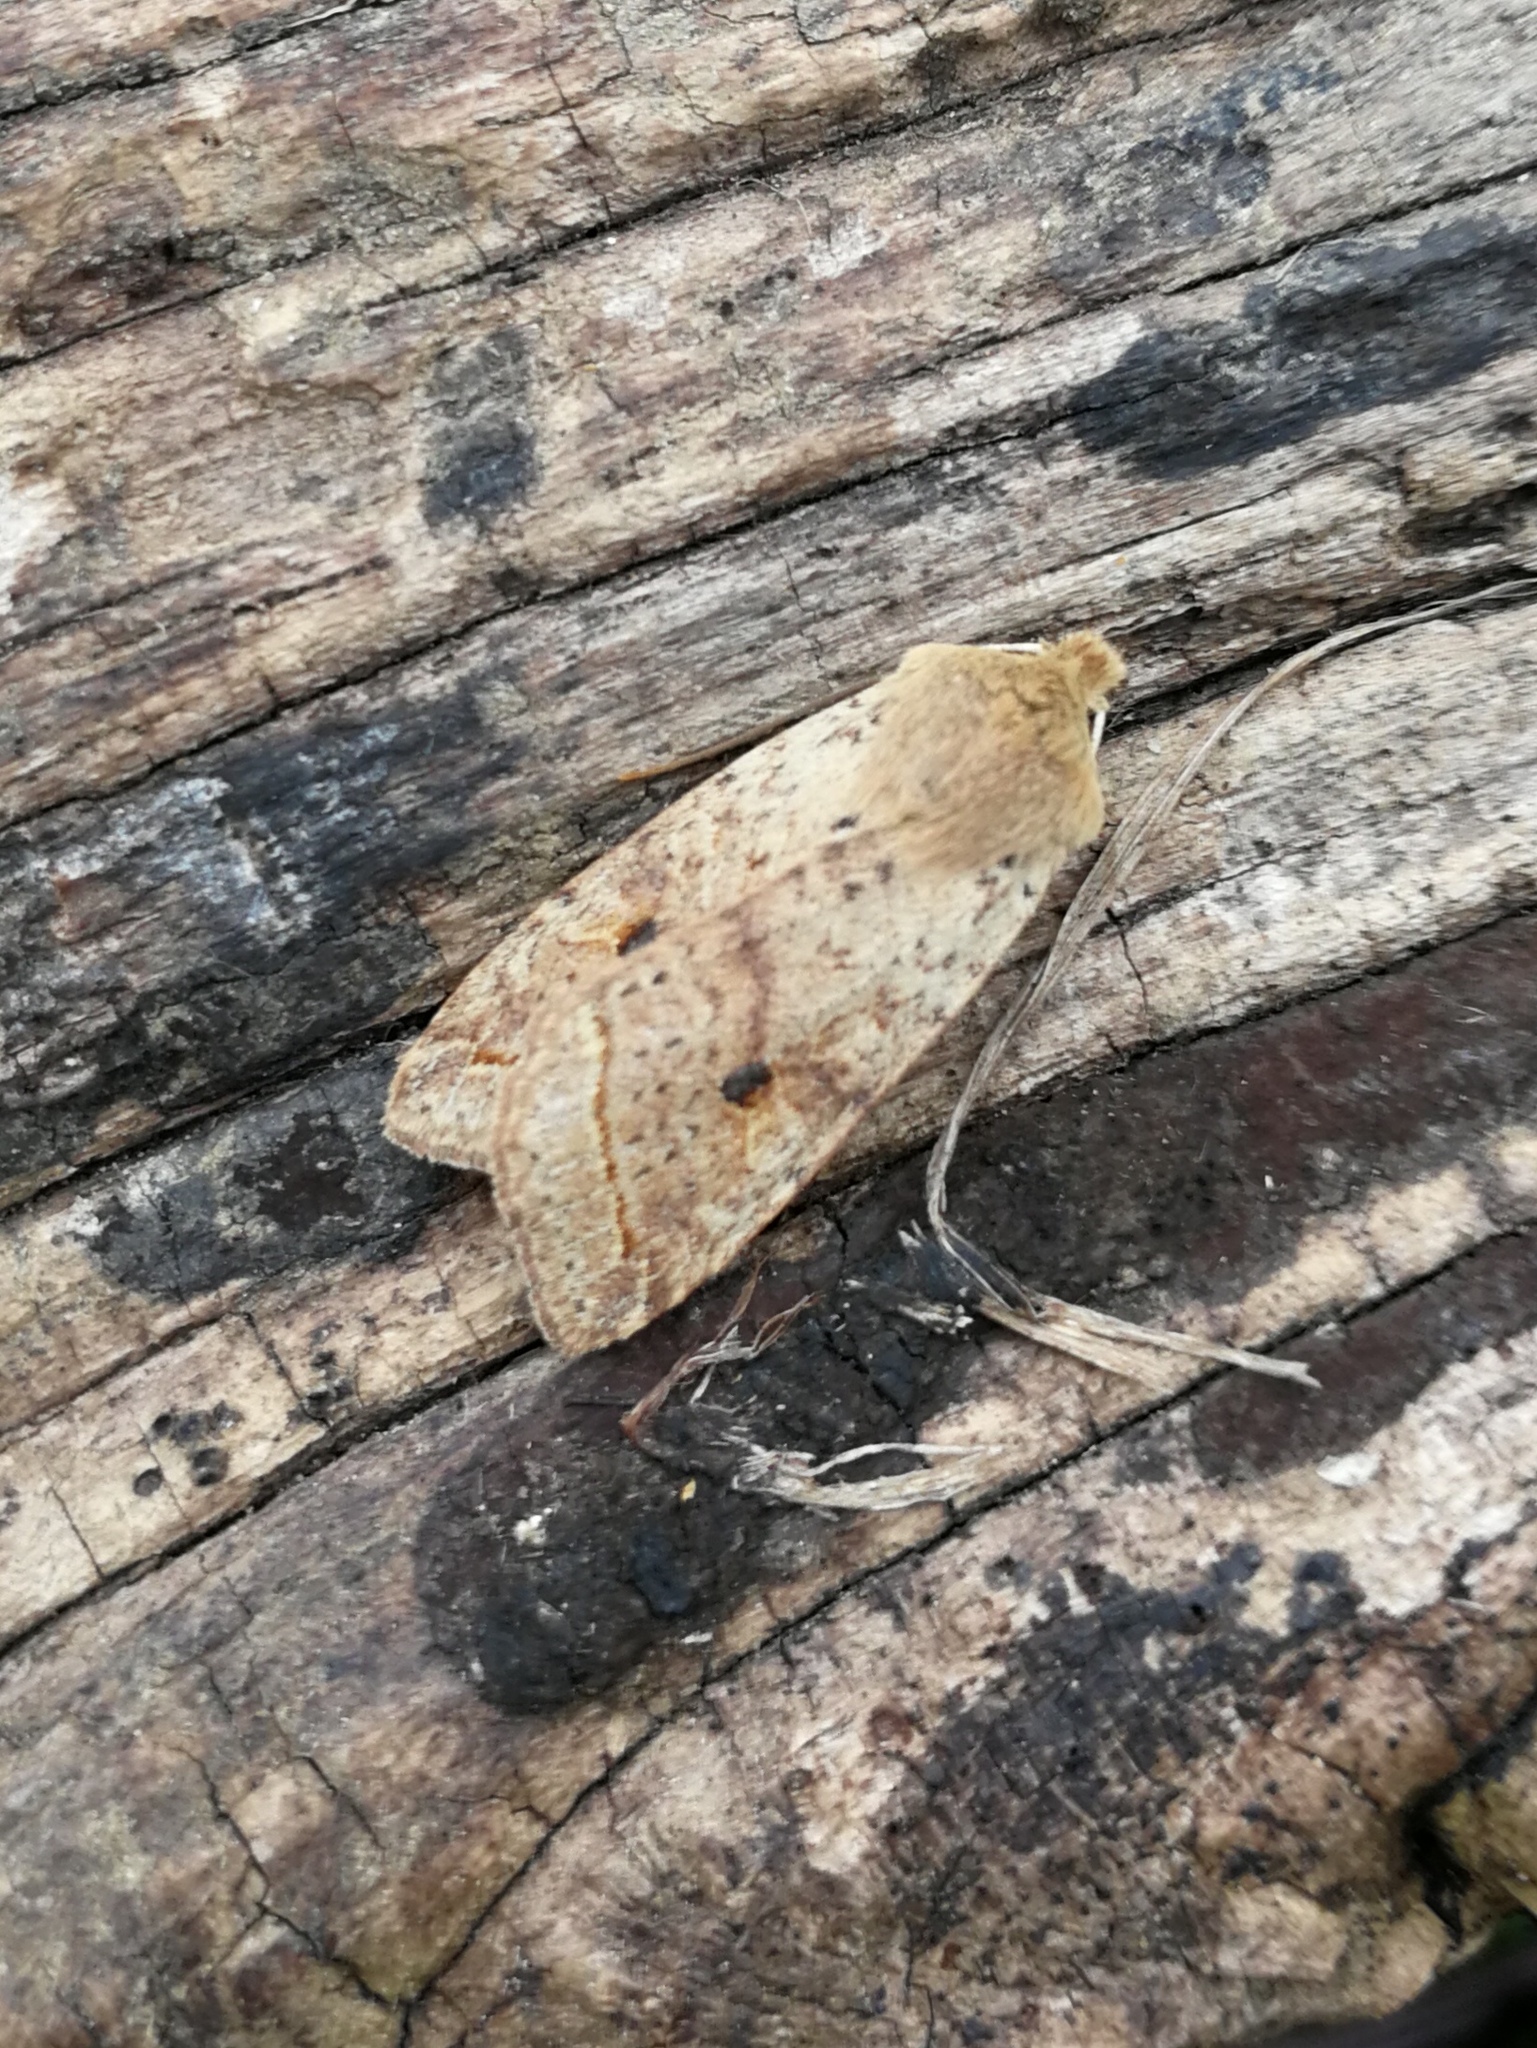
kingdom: Animalia
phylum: Arthropoda
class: Insecta
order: Lepidoptera
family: Noctuidae
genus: Agrochola
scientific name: Agrochola blidaensis
